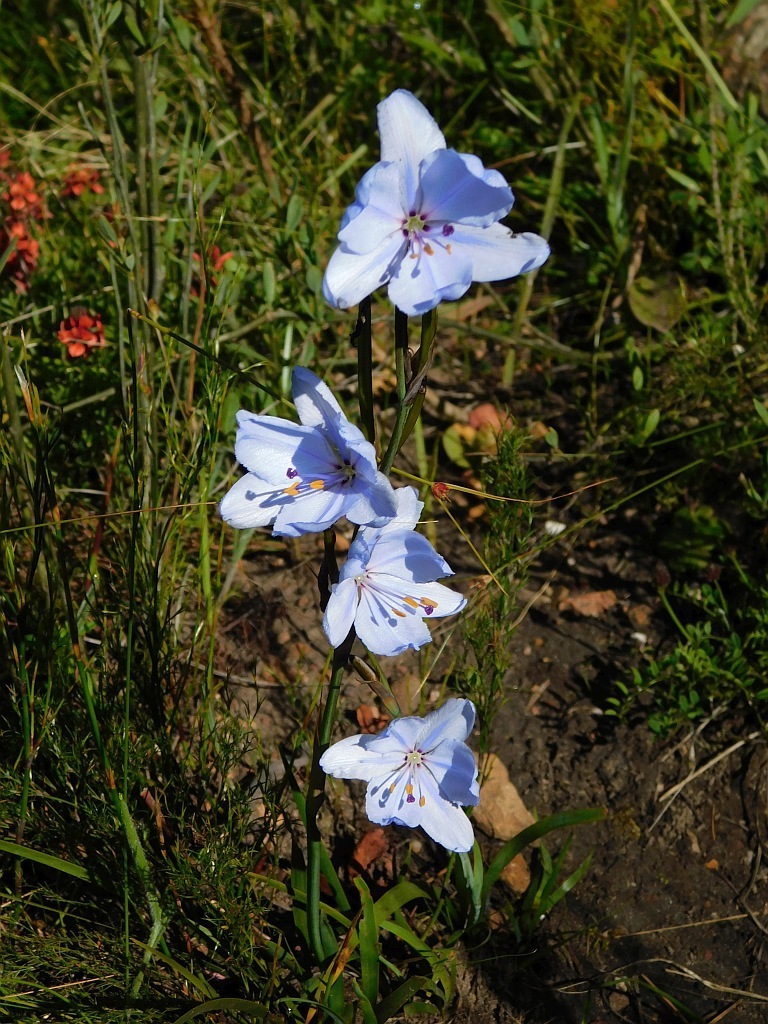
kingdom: Plantae
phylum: Tracheophyta
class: Liliopsida
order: Asparagales
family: Iridaceae
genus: Aristea
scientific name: Aristea spiralis
